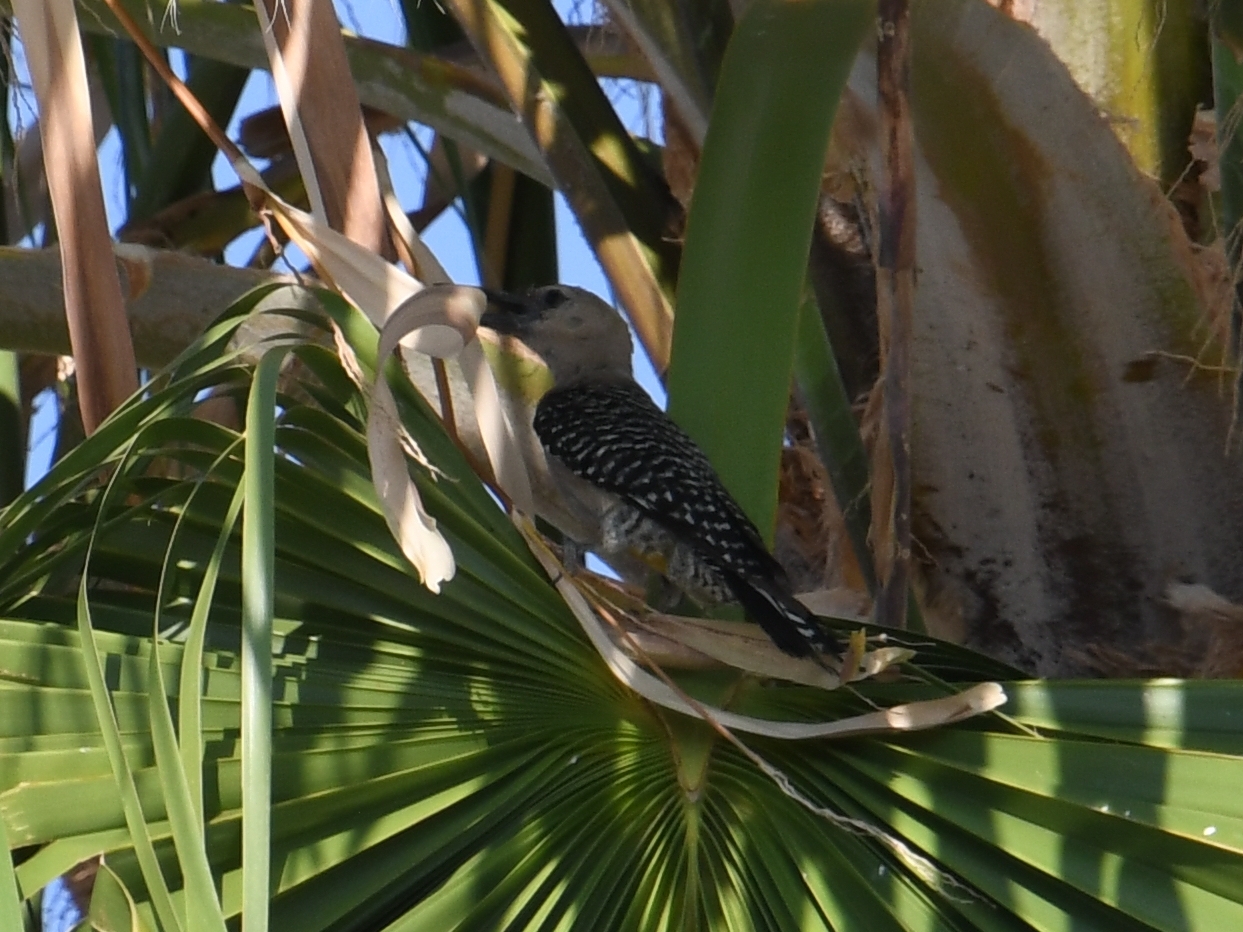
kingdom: Animalia
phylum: Chordata
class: Aves
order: Piciformes
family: Picidae
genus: Melanerpes
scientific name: Melanerpes uropygialis
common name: Gila woodpecker
